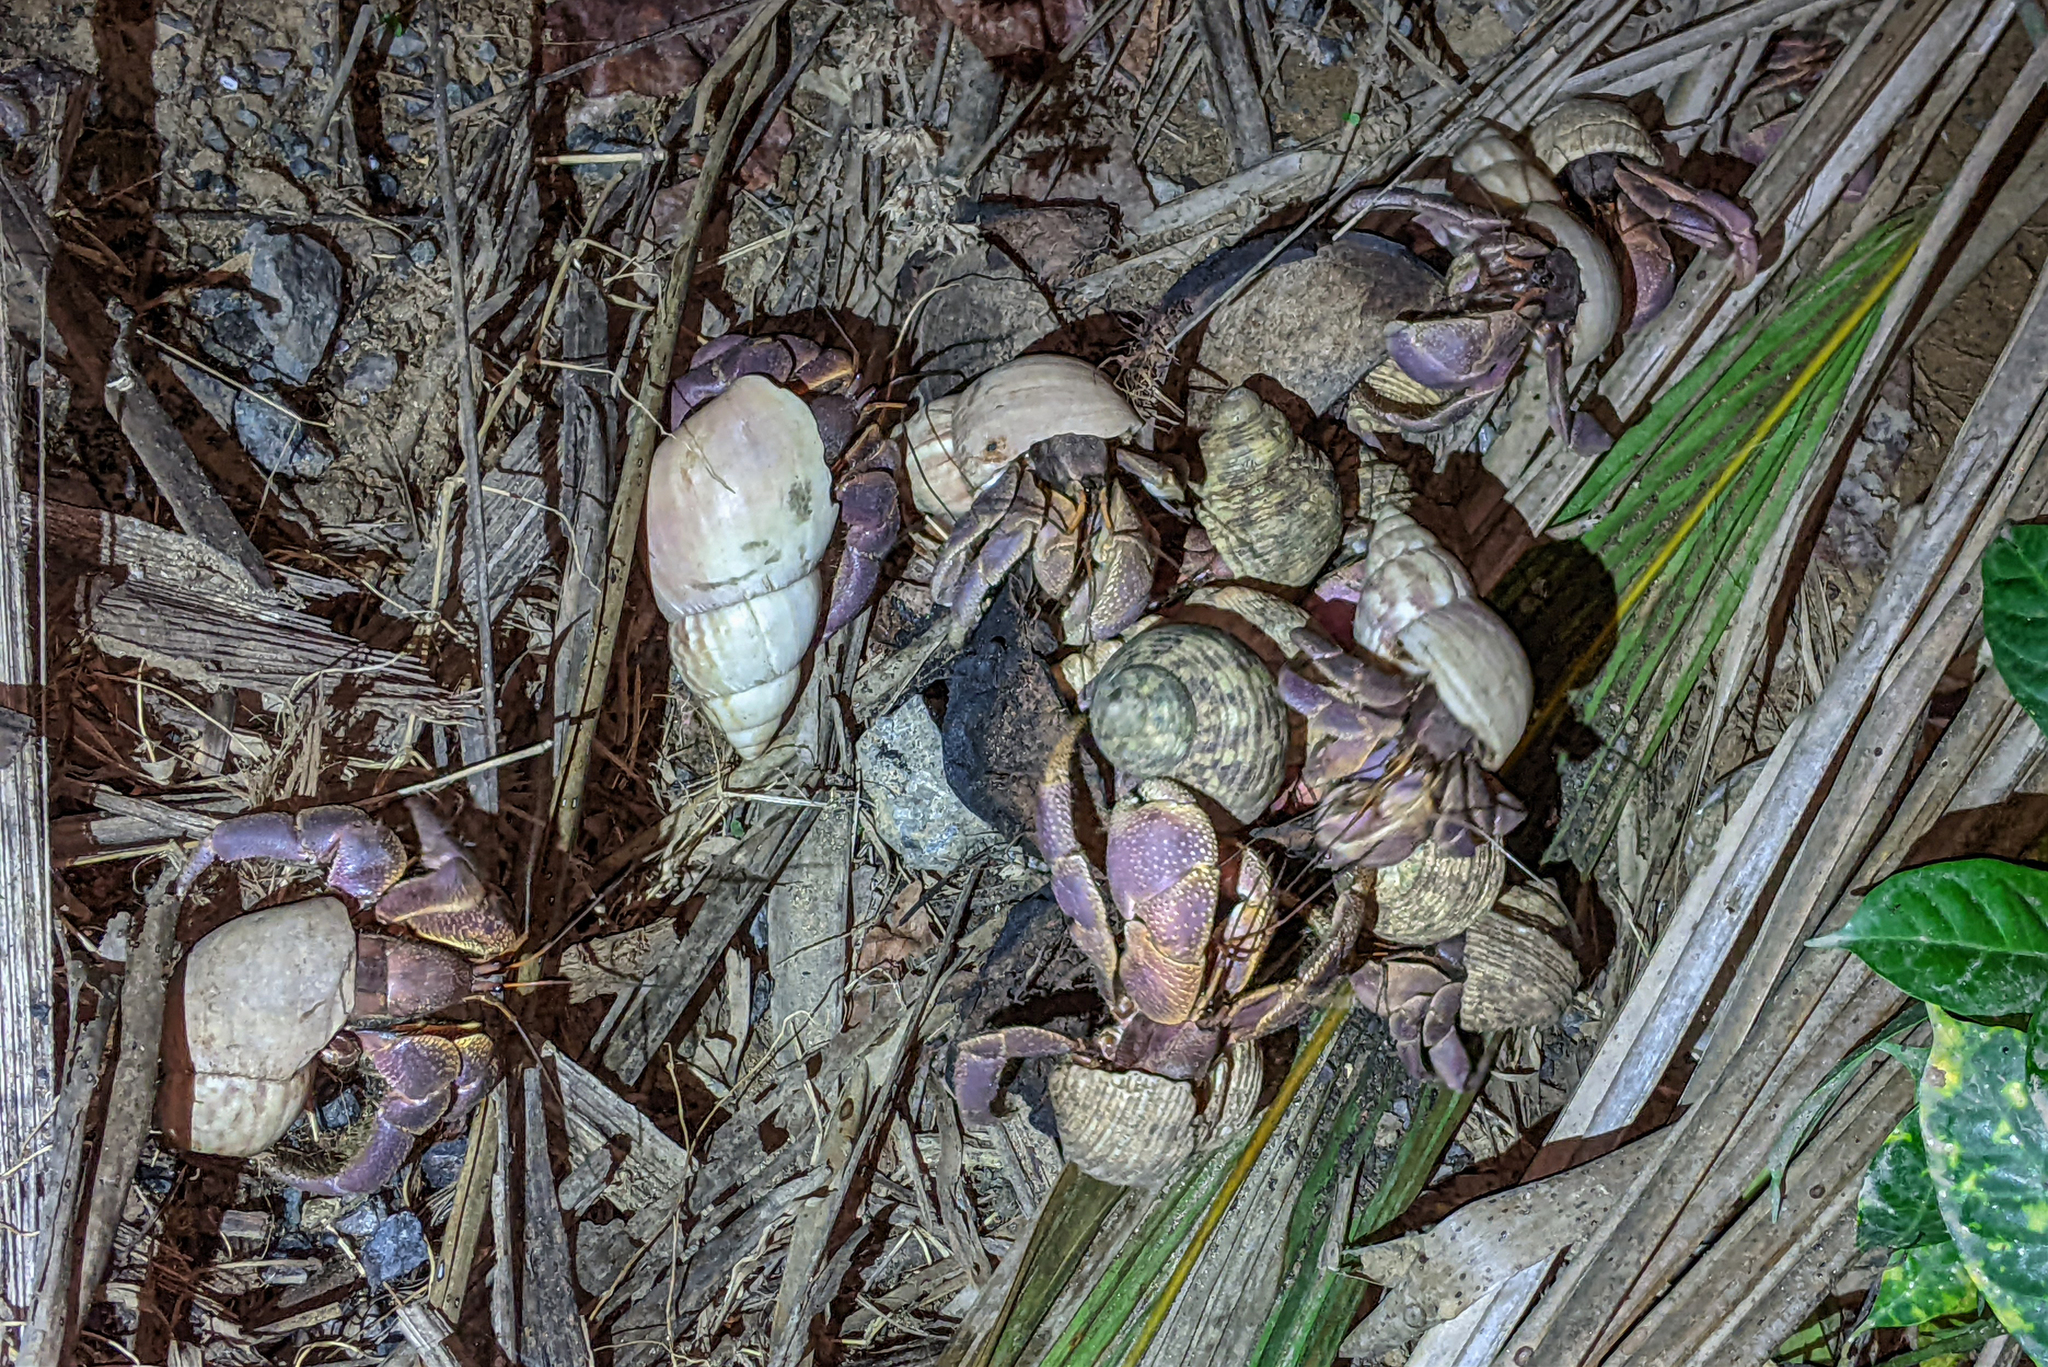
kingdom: Animalia
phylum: Arthropoda
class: Malacostraca
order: Decapoda
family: Coenobitidae
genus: Coenobita
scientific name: Coenobita brevimanus
